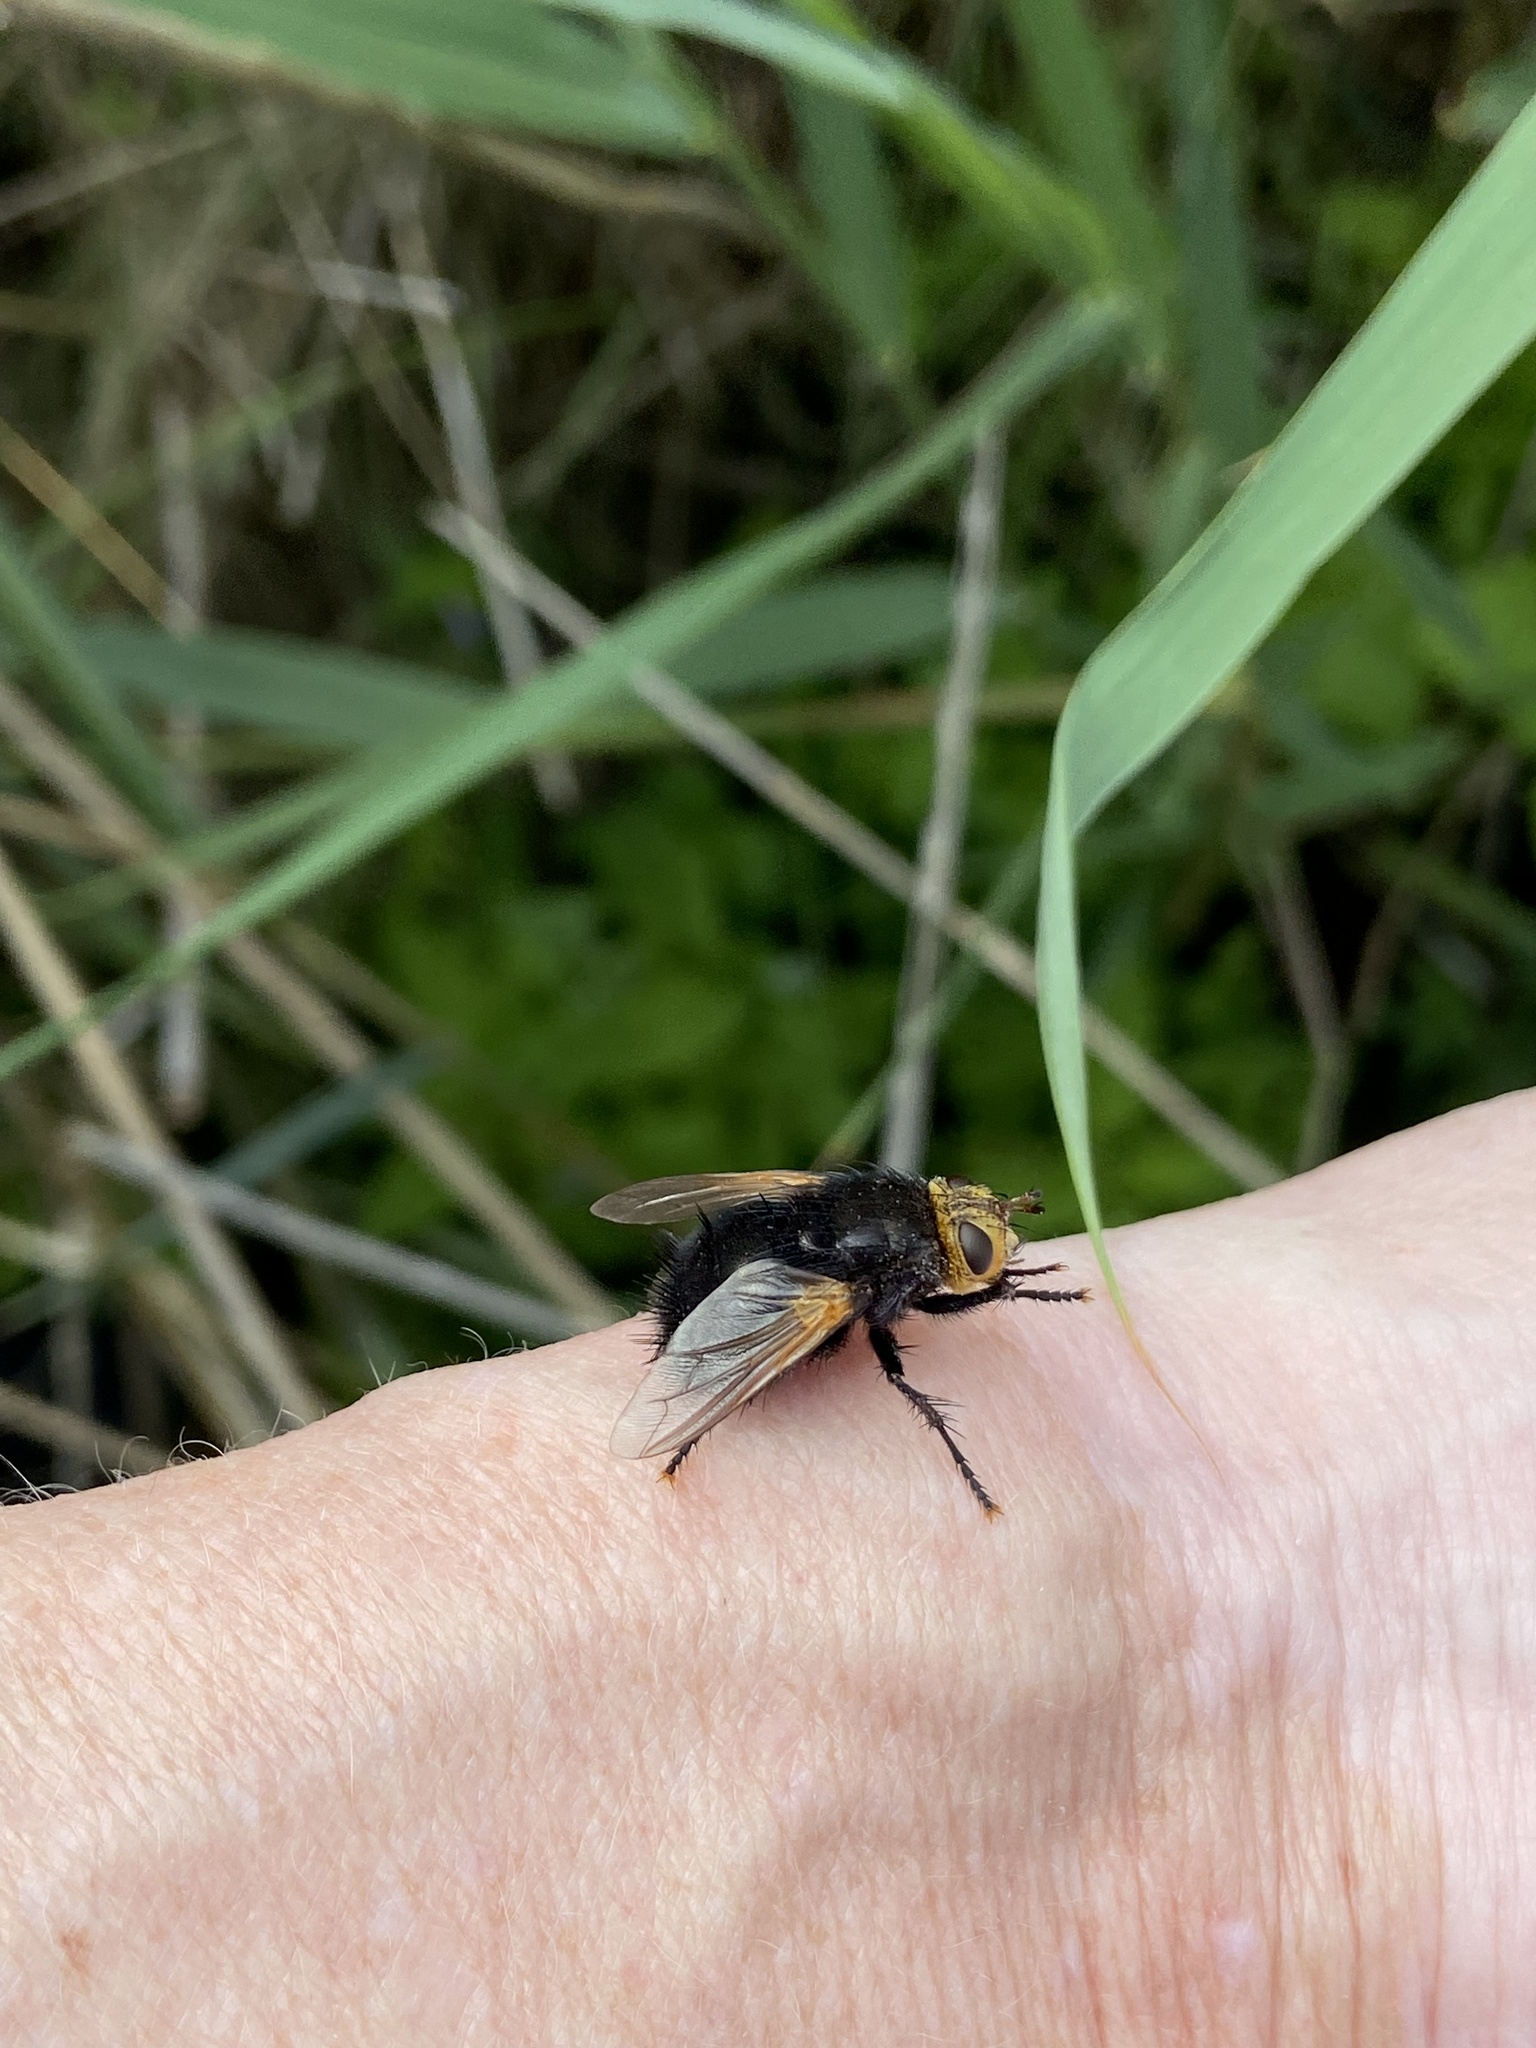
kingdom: Animalia
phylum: Arthropoda
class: Insecta
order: Diptera
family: Tachinidae
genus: Tachina
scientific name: Tachina grossa
